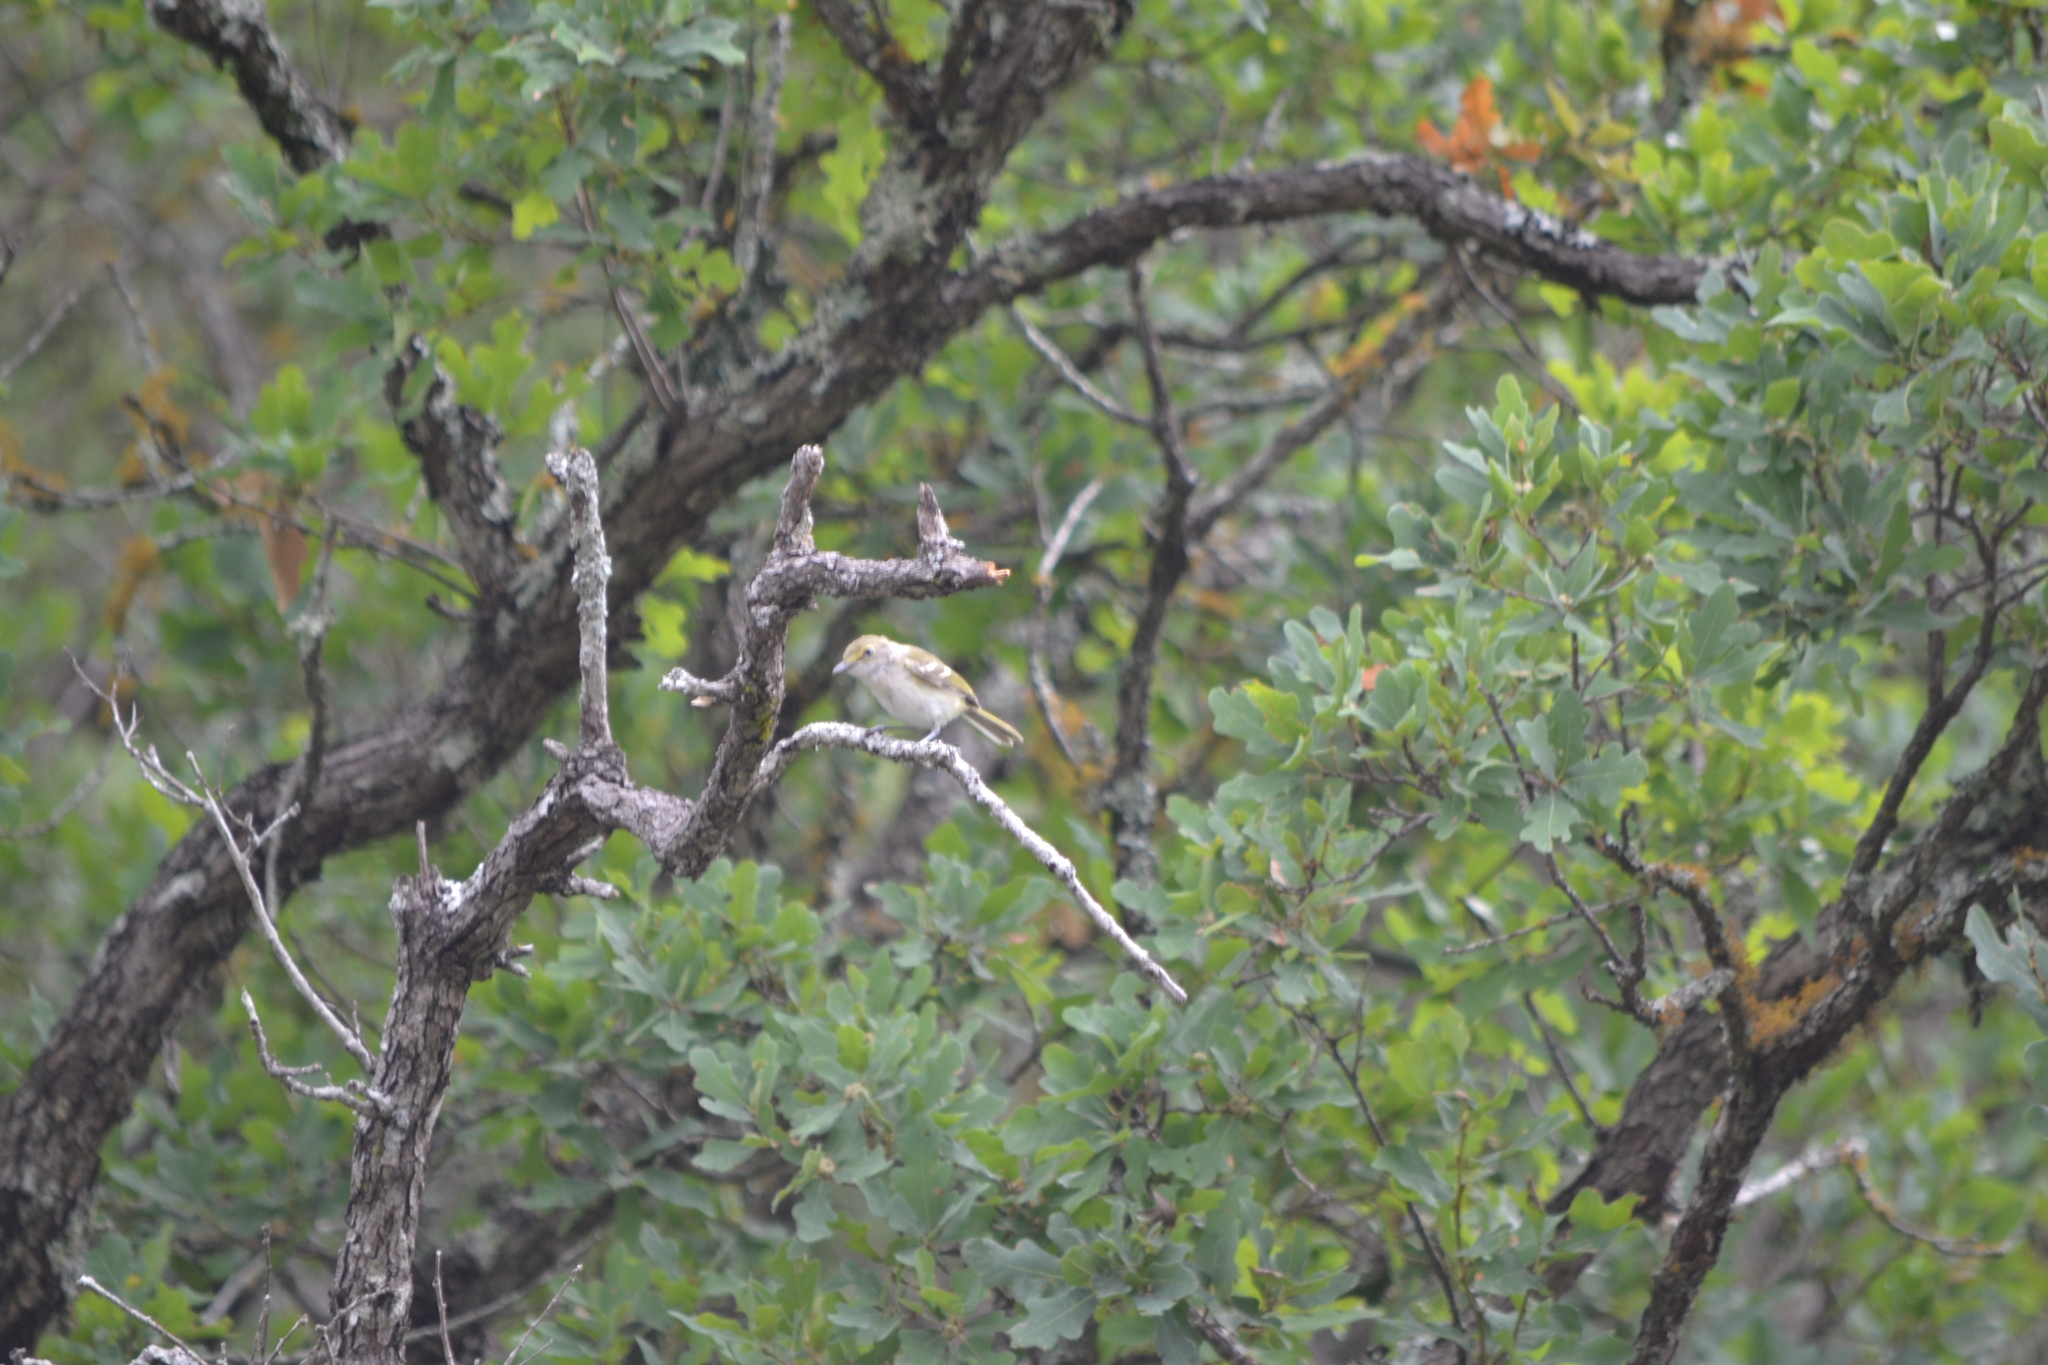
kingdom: Animalia
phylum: Chordata
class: Aves
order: Passeriformes
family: Vireonidae
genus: Vireo
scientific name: Vireo griseus
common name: White-eyed vireo
